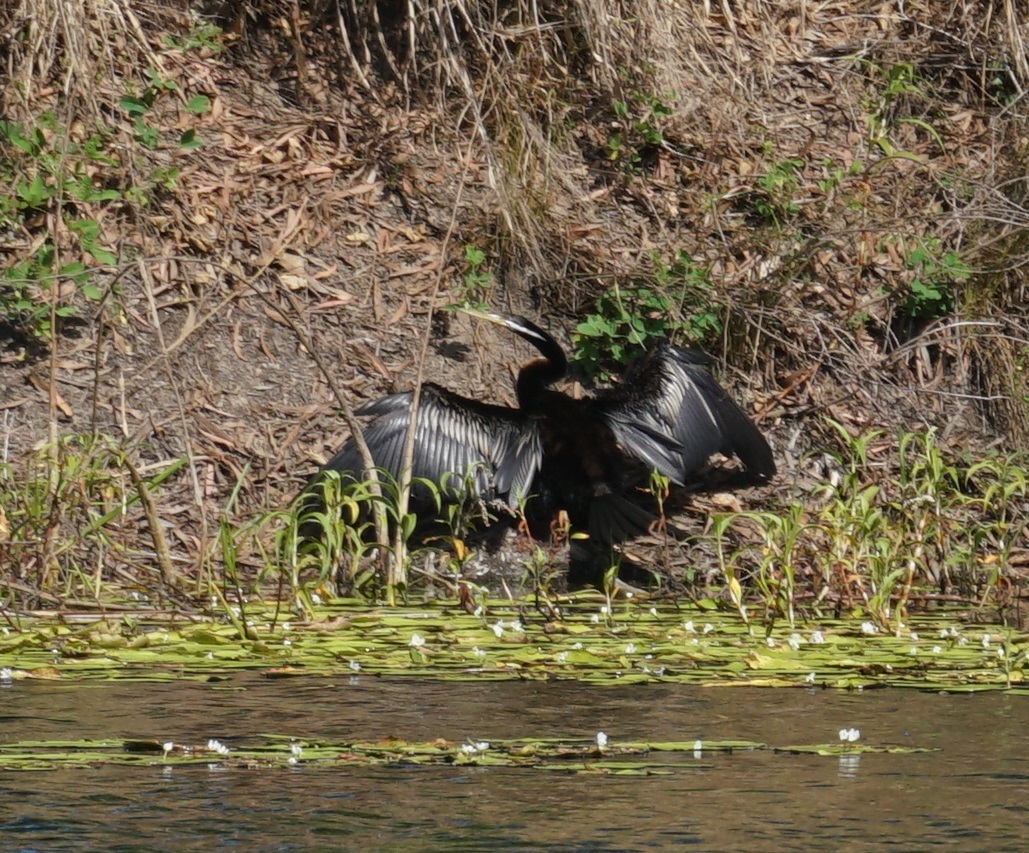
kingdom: Animalia
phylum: Chordata
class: Aves
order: Suliformes
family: Anhingidae
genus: Anhinga
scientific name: Anhinga novaehollandiae
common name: Australasian darter
